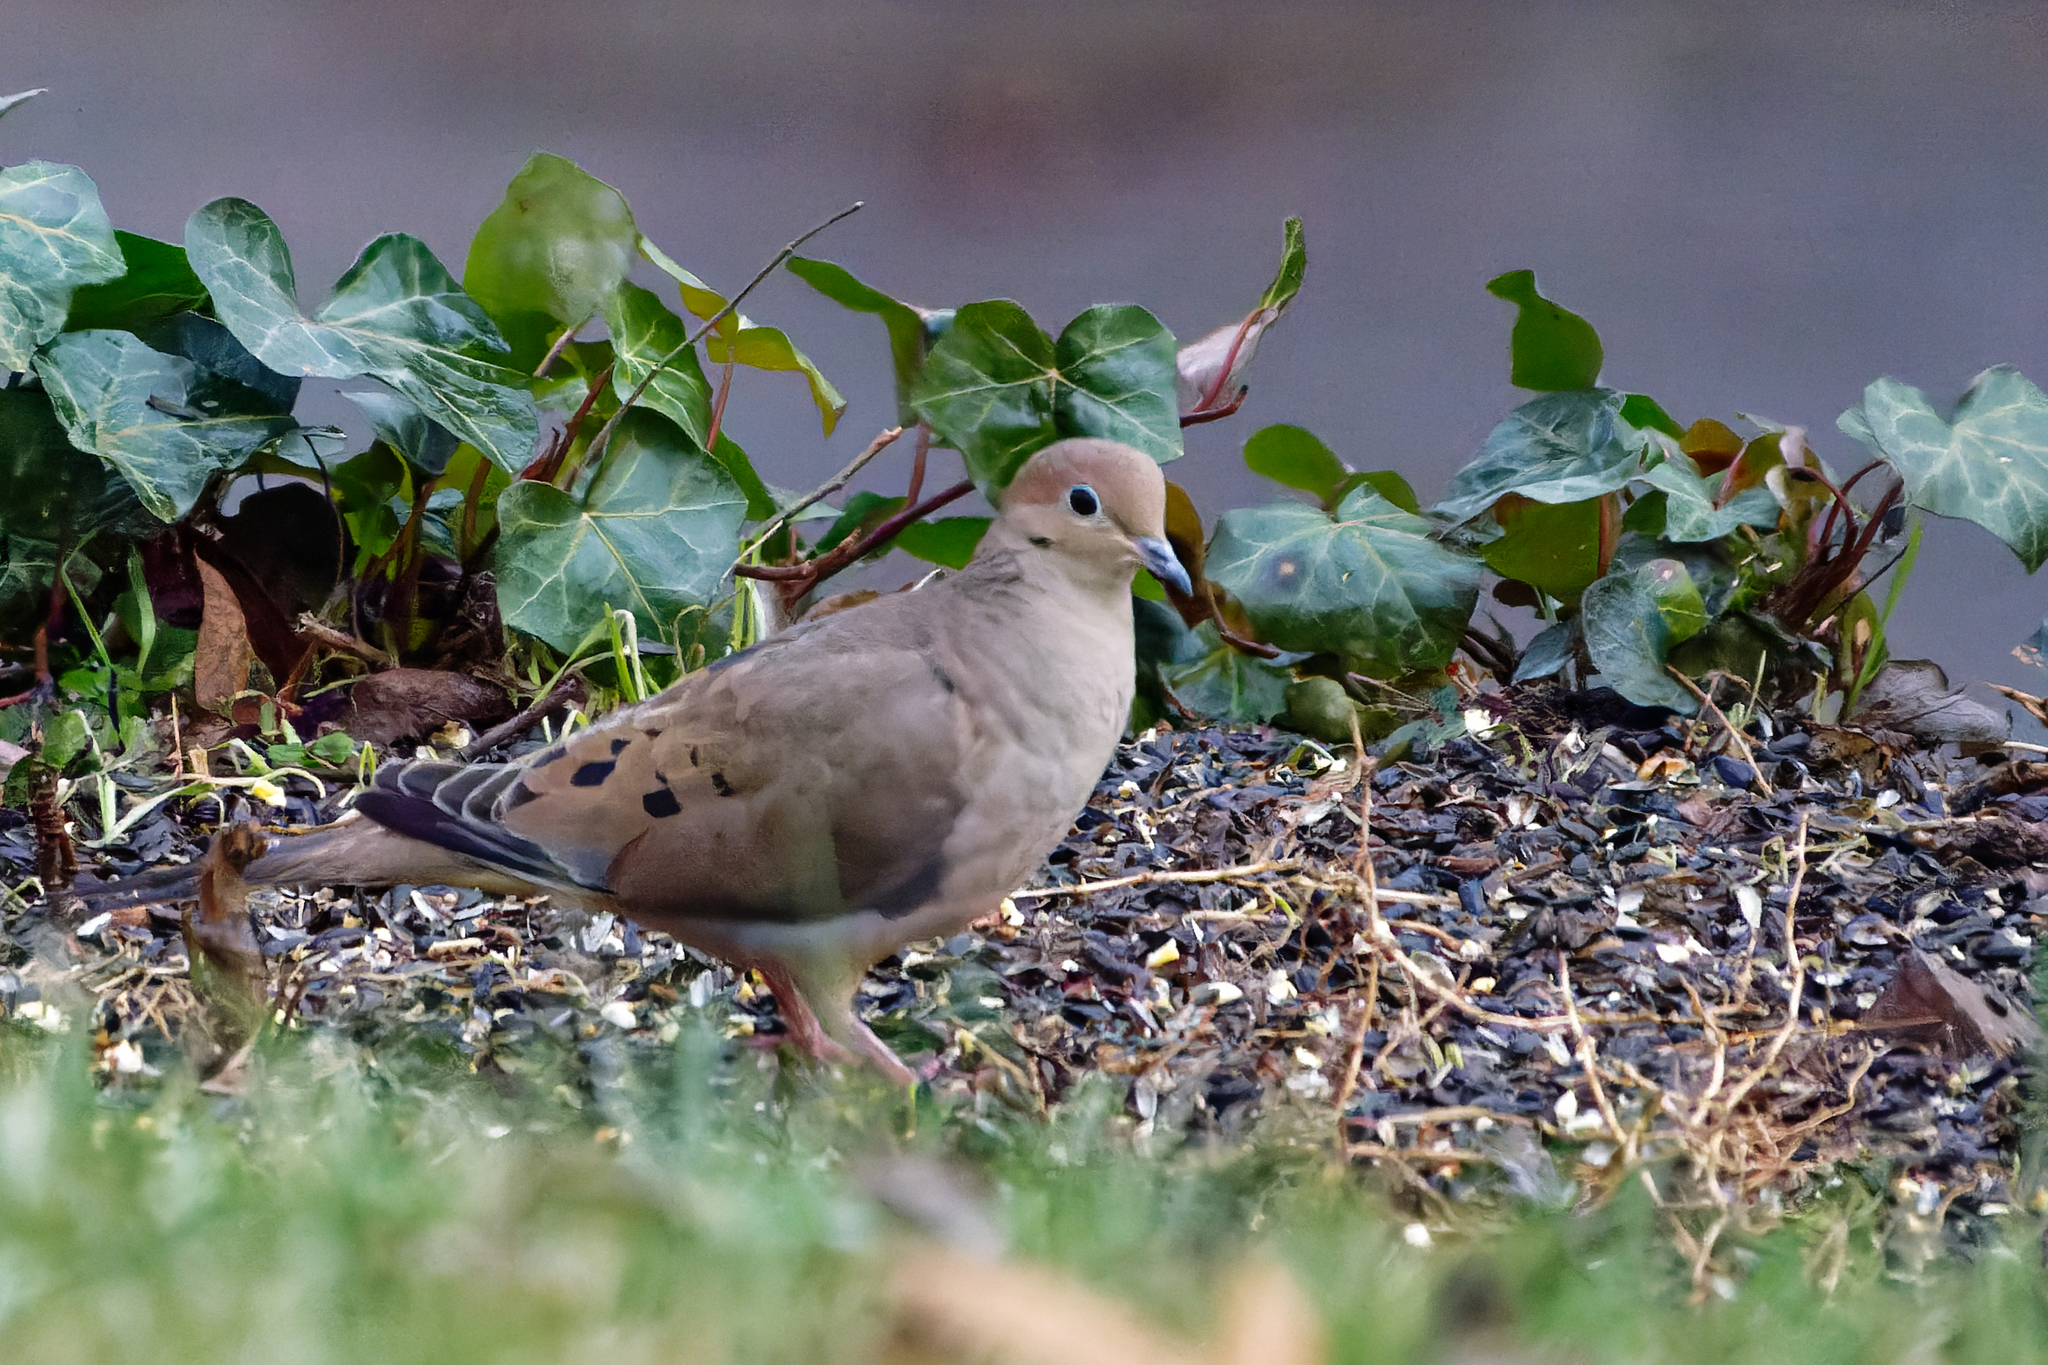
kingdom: Animalia
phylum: Chordata
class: Aves
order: Columbiformes
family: Columbidae
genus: Zenaida
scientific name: Zenaida macroura
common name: Mourning dove
